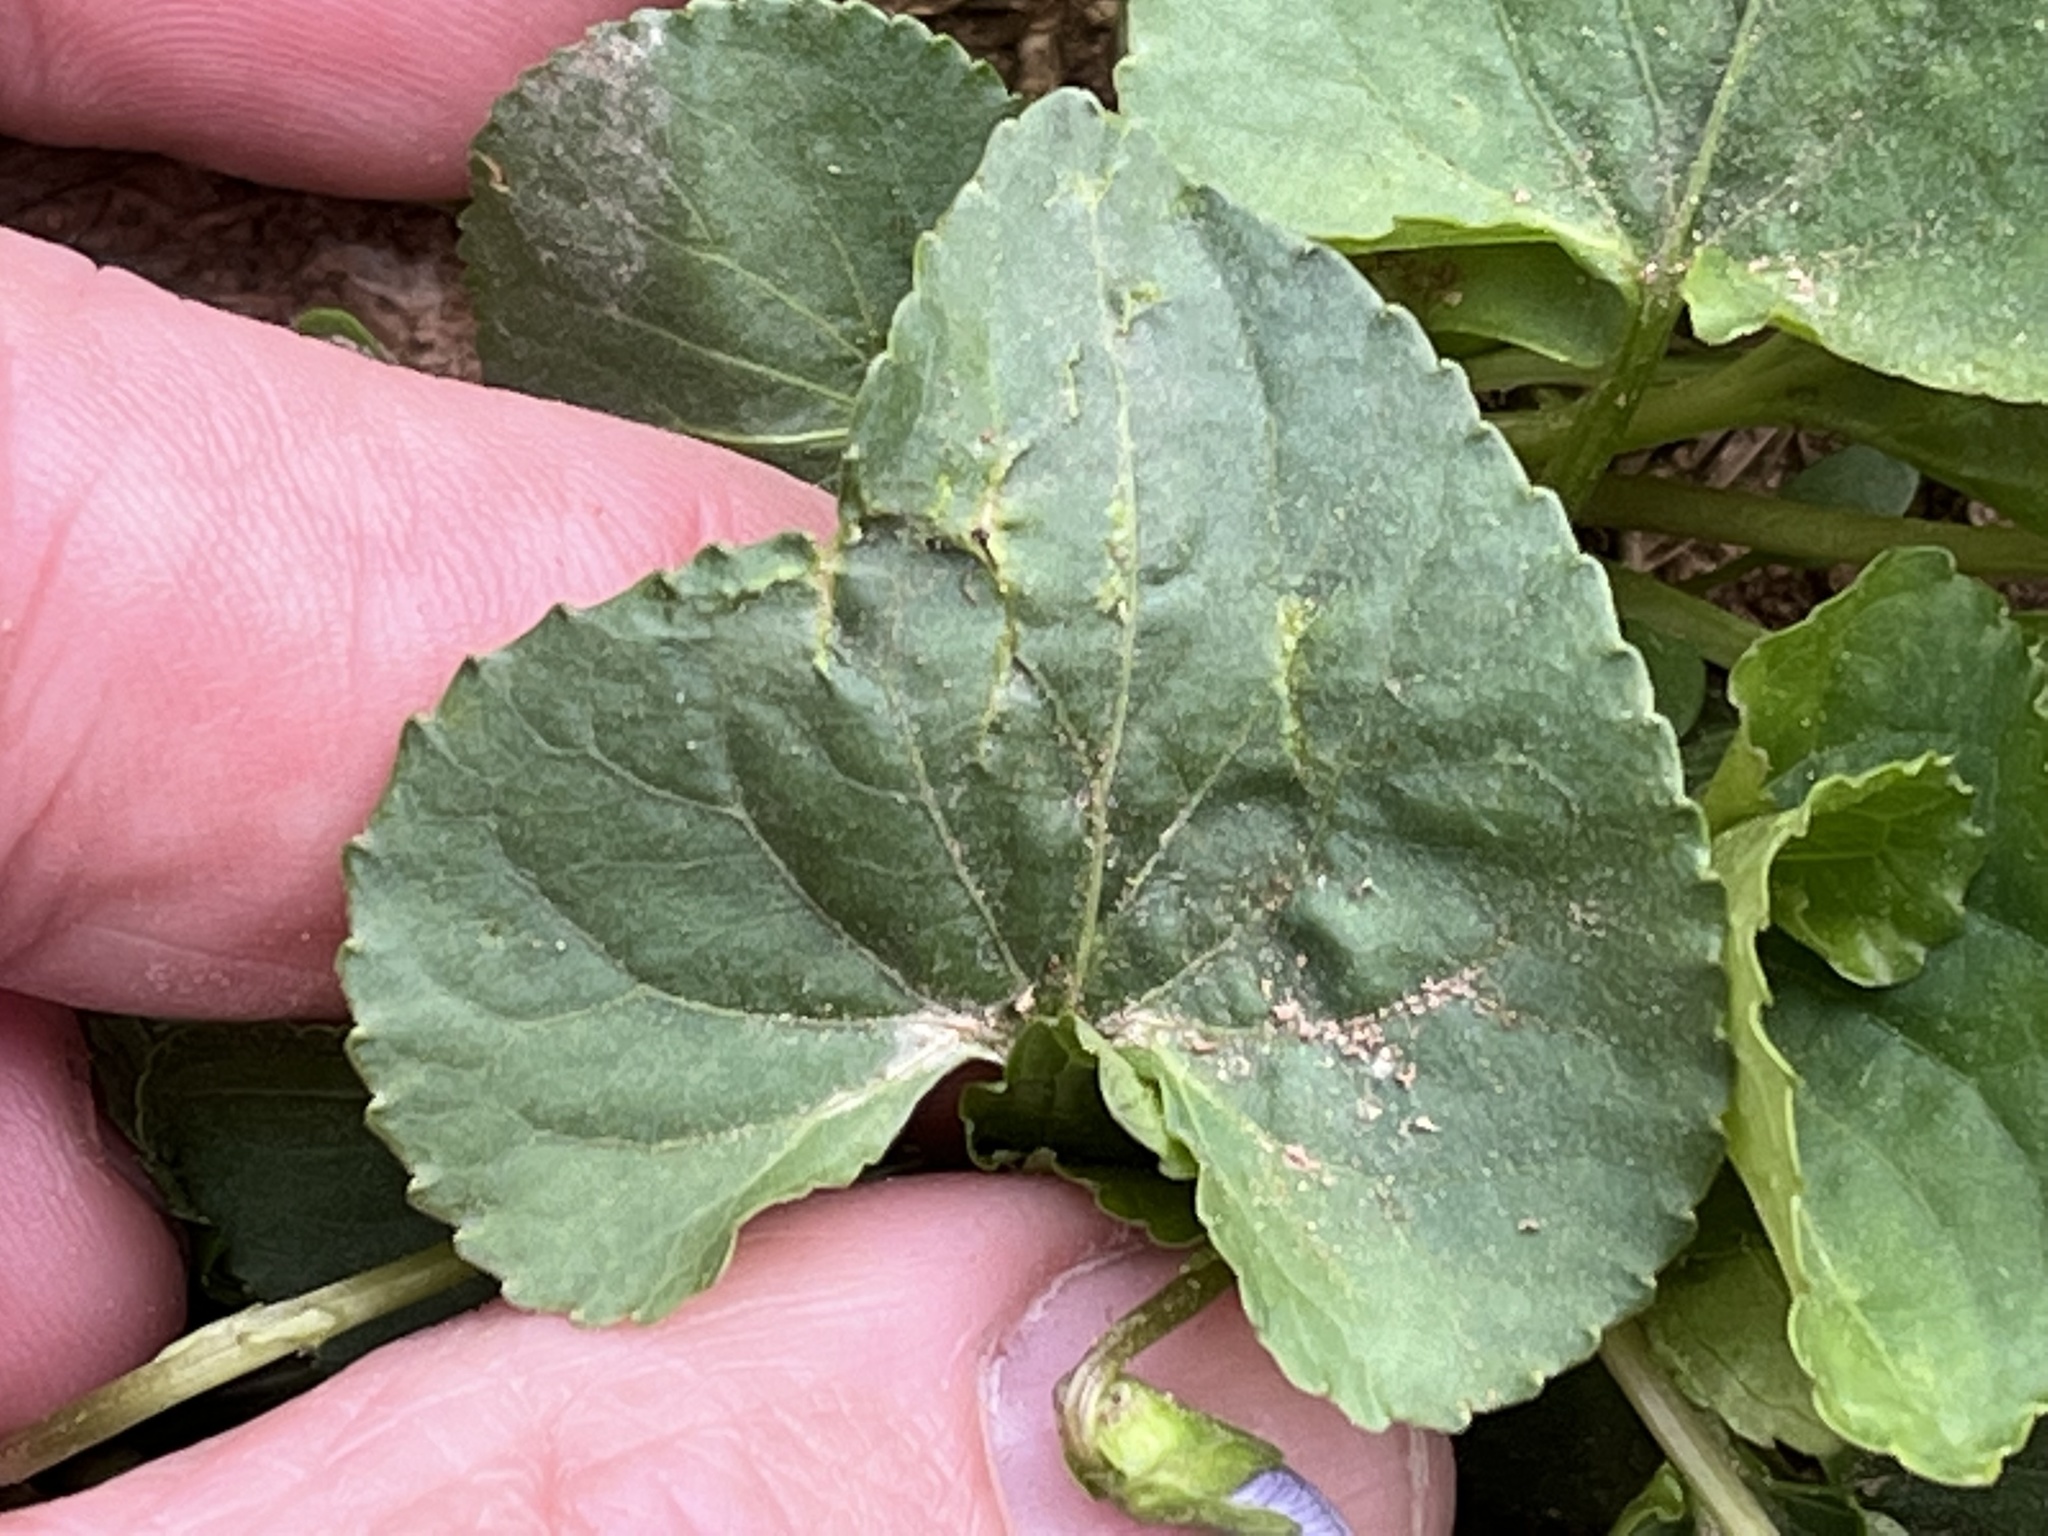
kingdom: Plantae
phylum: Tracheophyta
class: Magnoliopsida
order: Malpighiales
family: Violaceae
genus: Viola
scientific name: Viola sororia
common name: Dooryard violet
